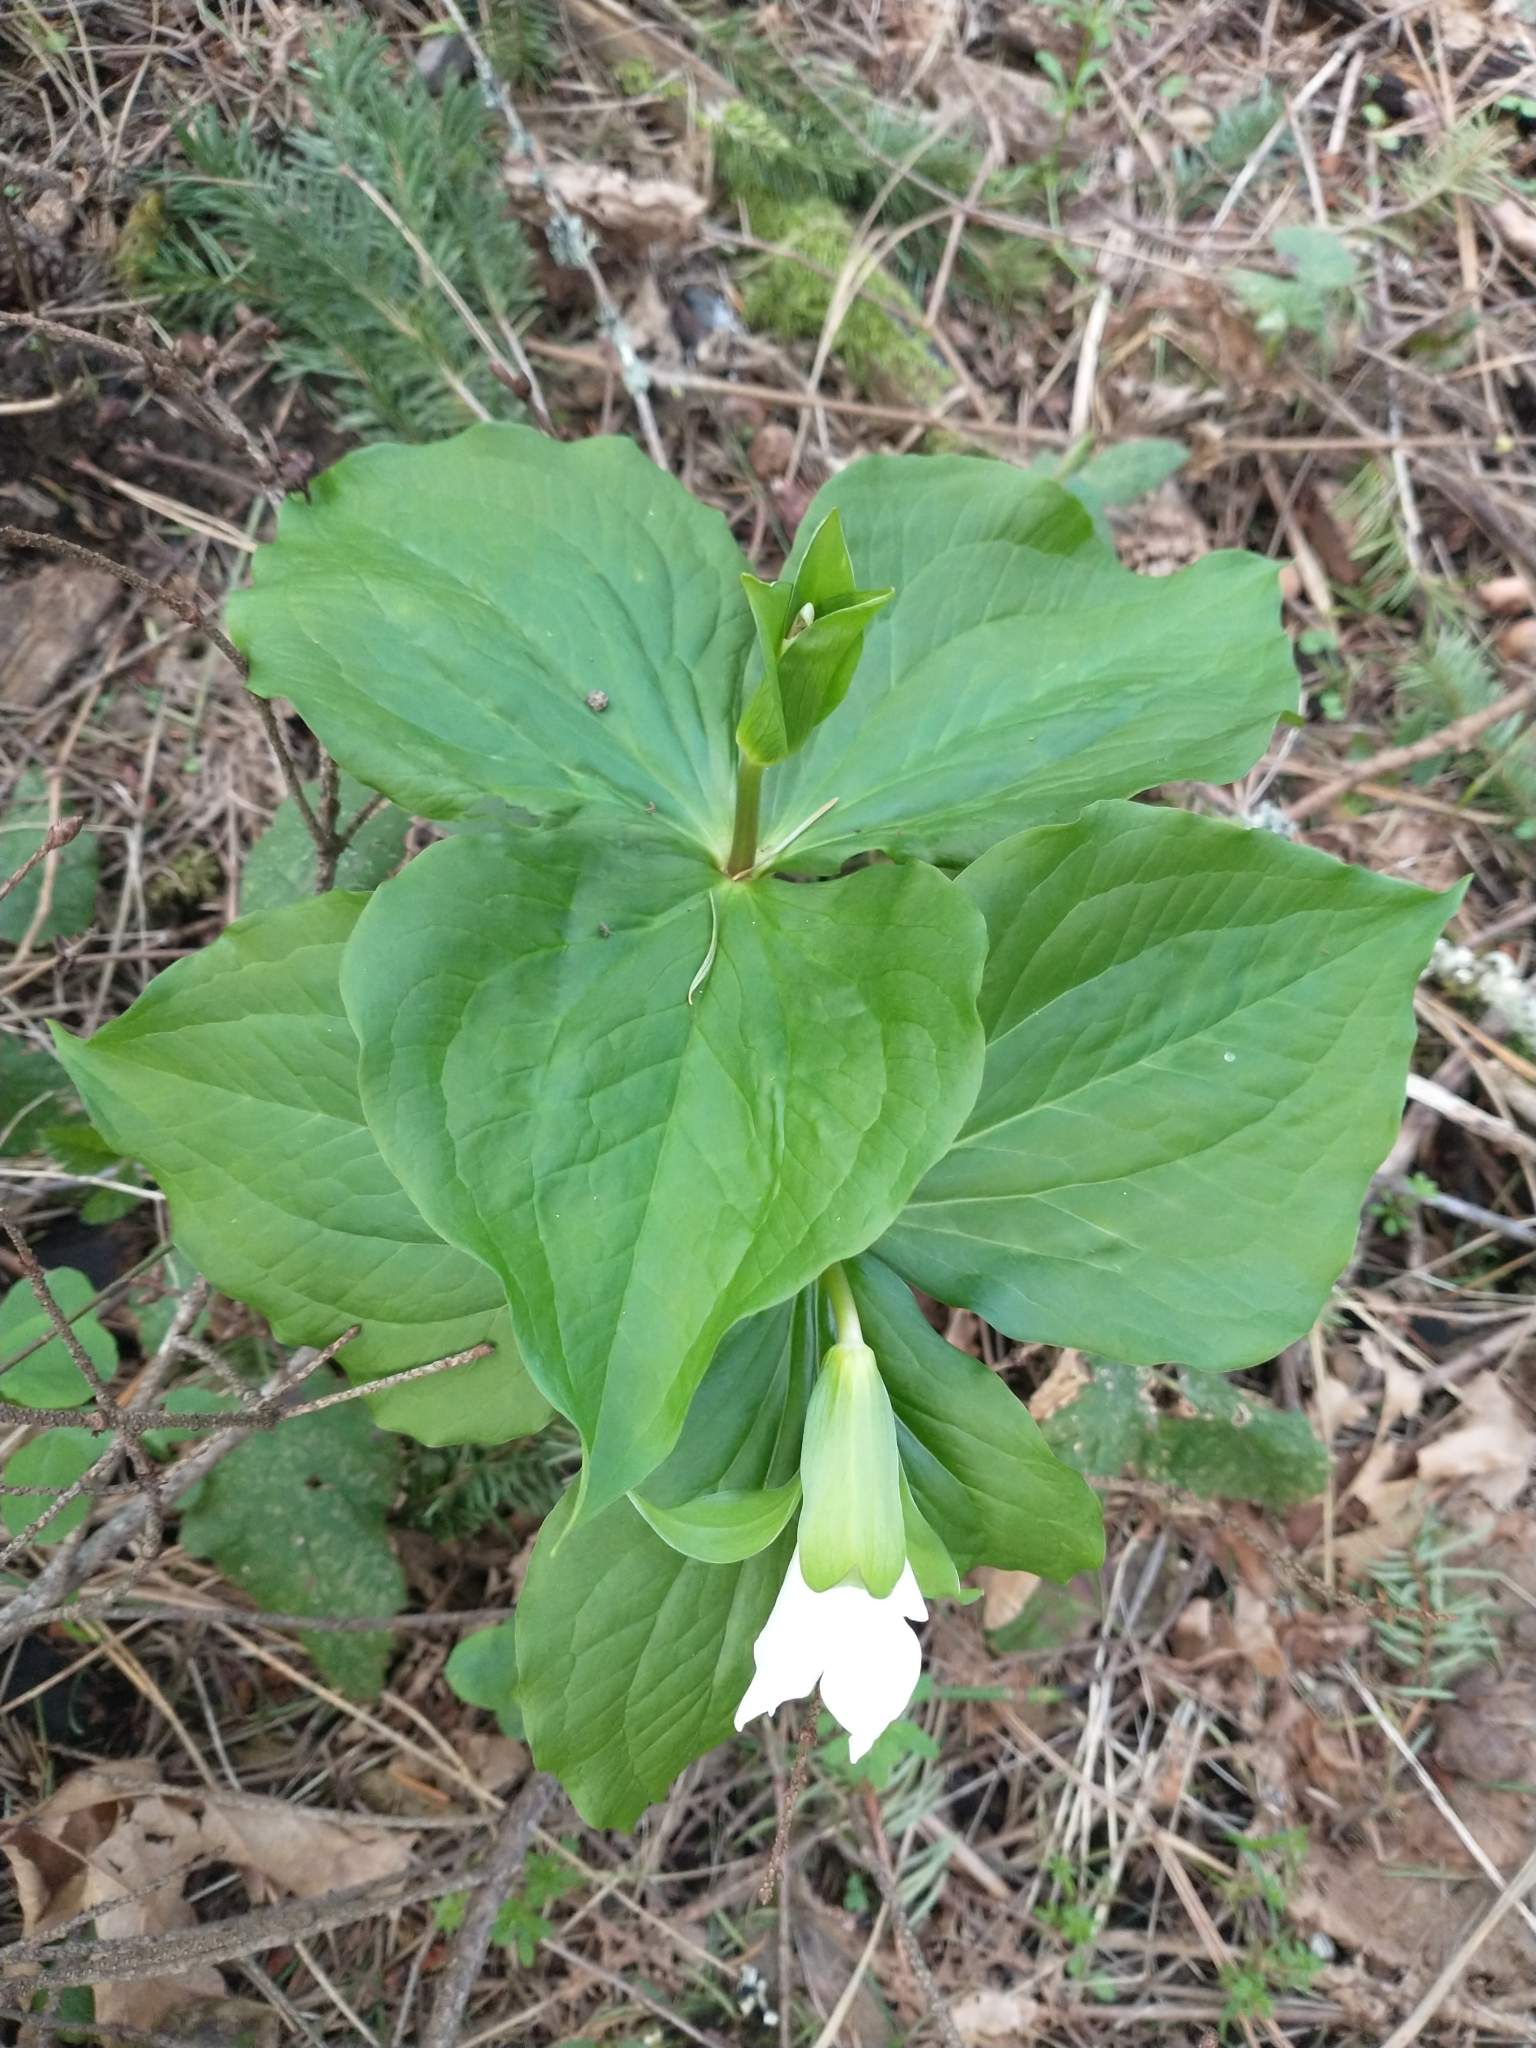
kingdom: Plantae
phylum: Tracheophyta
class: Liliopsida
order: Liliales
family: Melanthiaceae
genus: Trillium
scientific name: Trillium ovatum
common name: Pacific trillium
